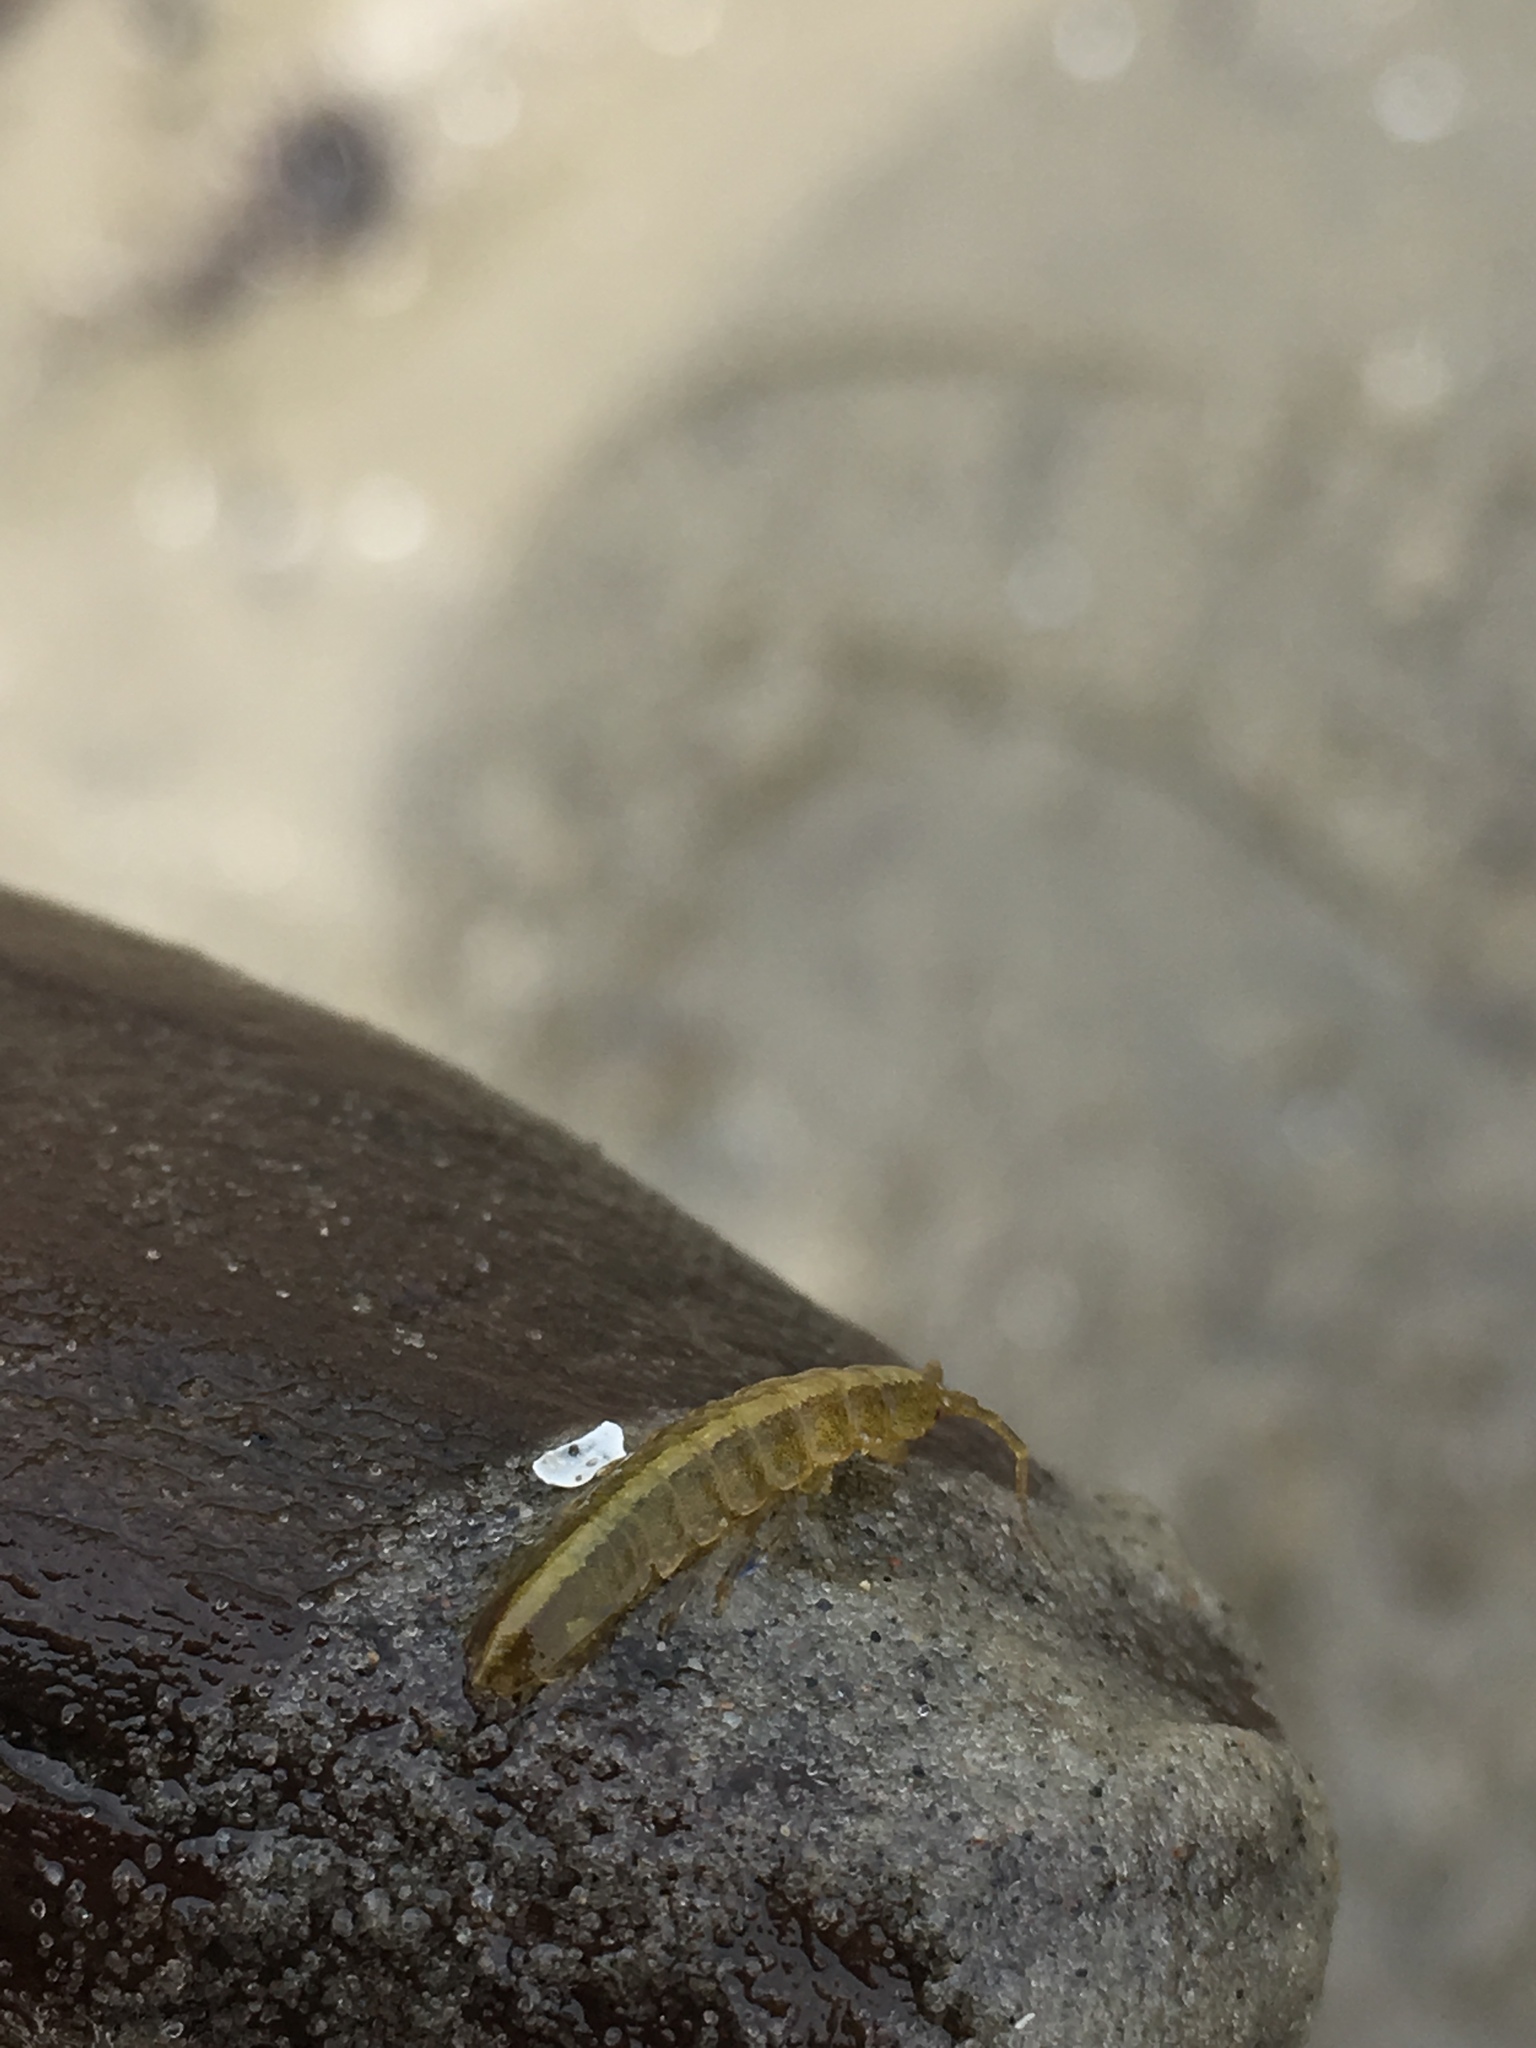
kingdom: Animalia
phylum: Arthropoda
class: Malacostraca
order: Isopoda
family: Idoteidae
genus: Idotea
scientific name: Idotea balthica
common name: Baltic isopod
